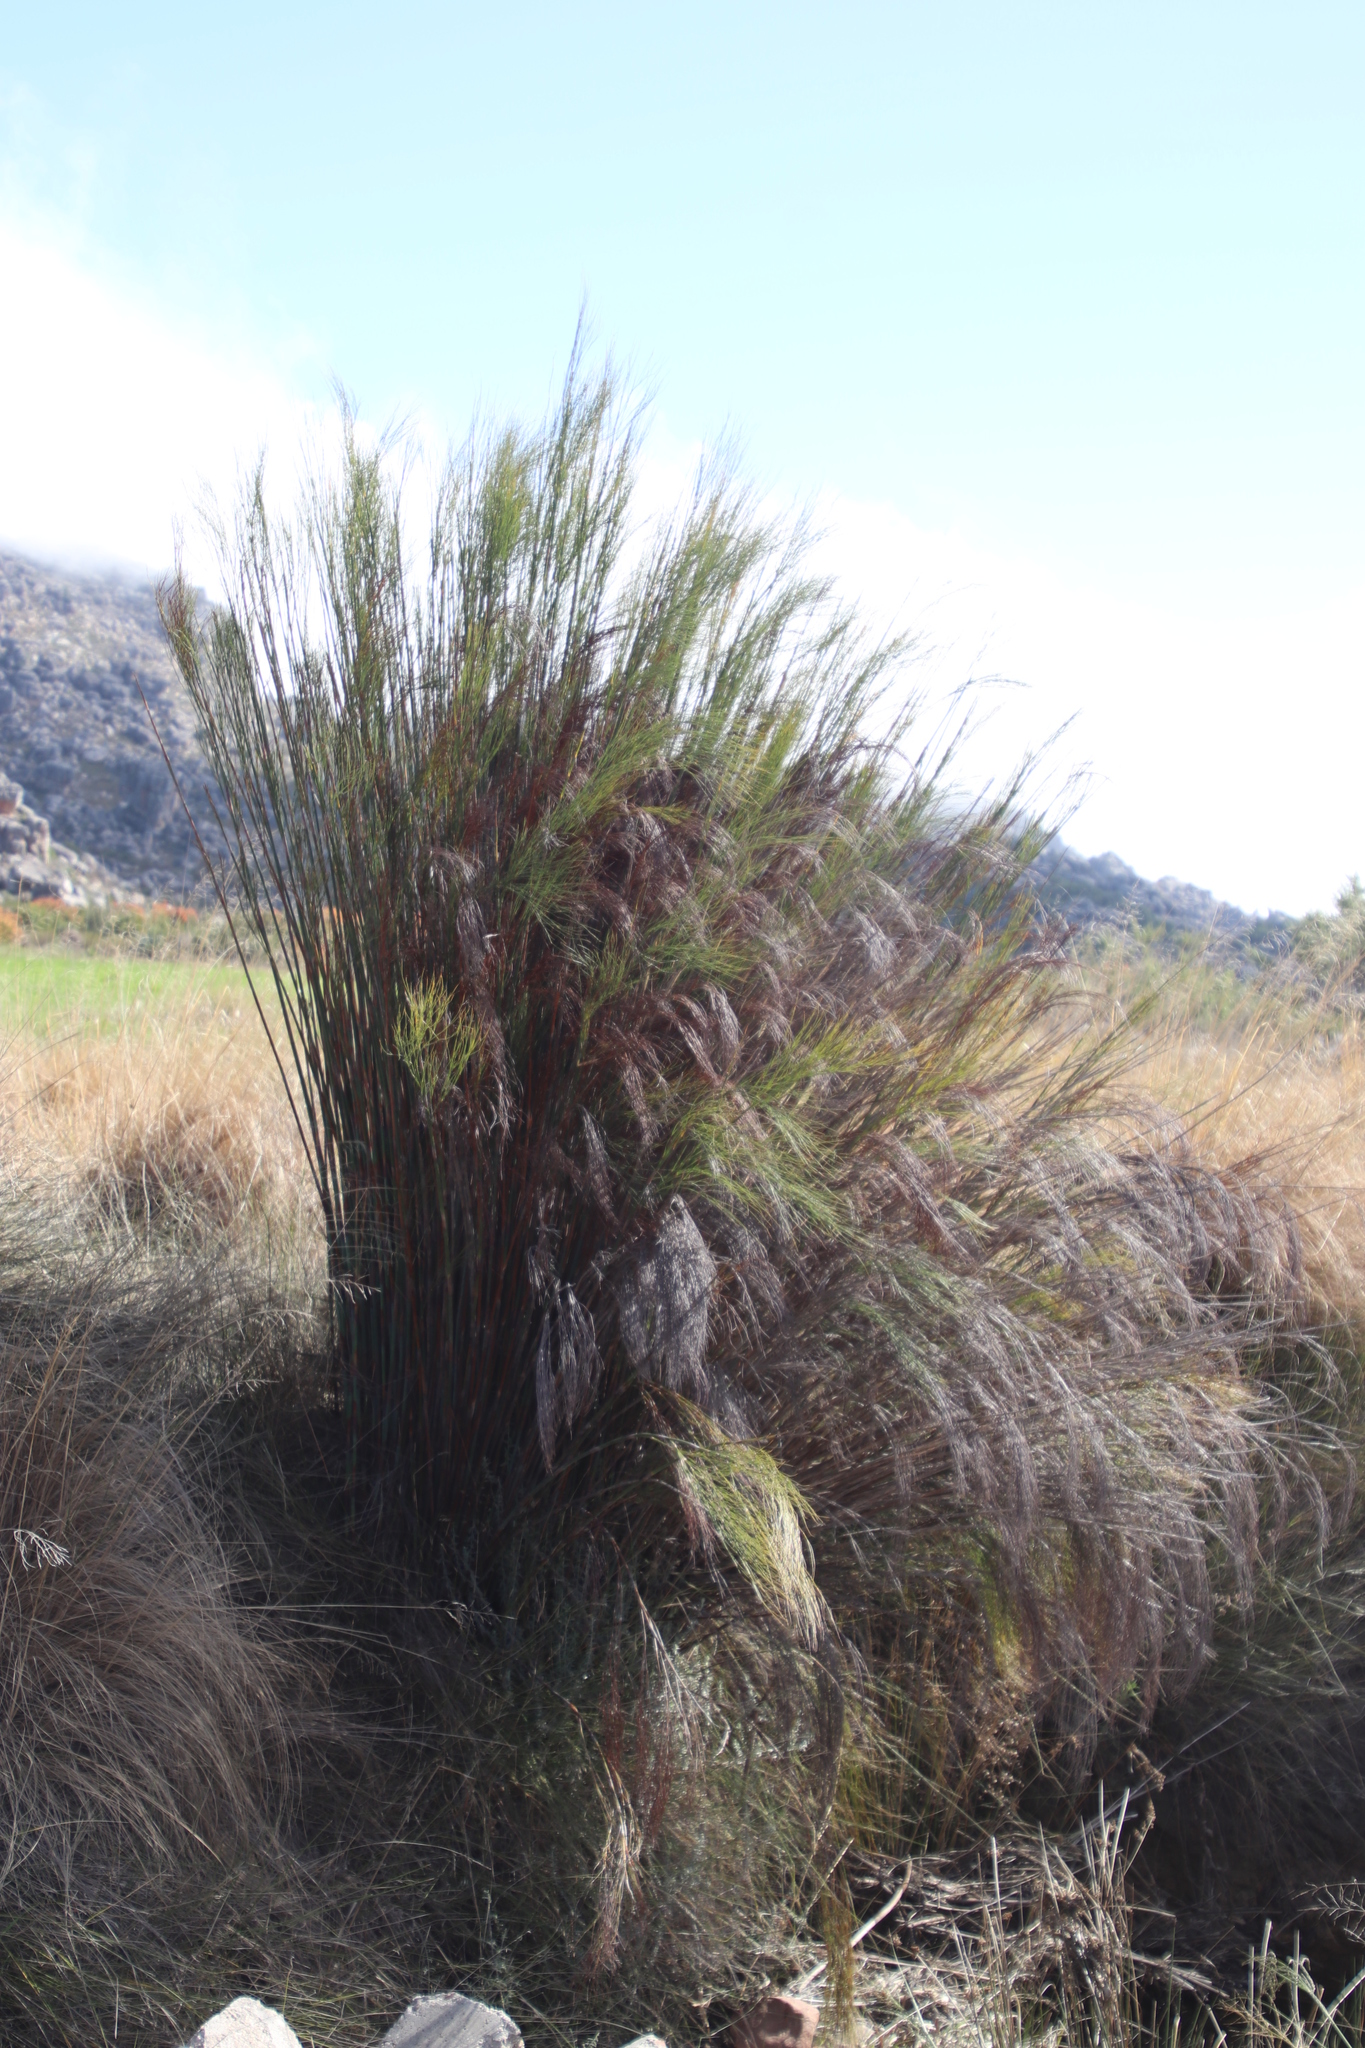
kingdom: Plantae
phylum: Tracheophyta
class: Liliopsida
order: Poales
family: Restionaceae
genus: Cannomois
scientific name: Cannomois robusta
